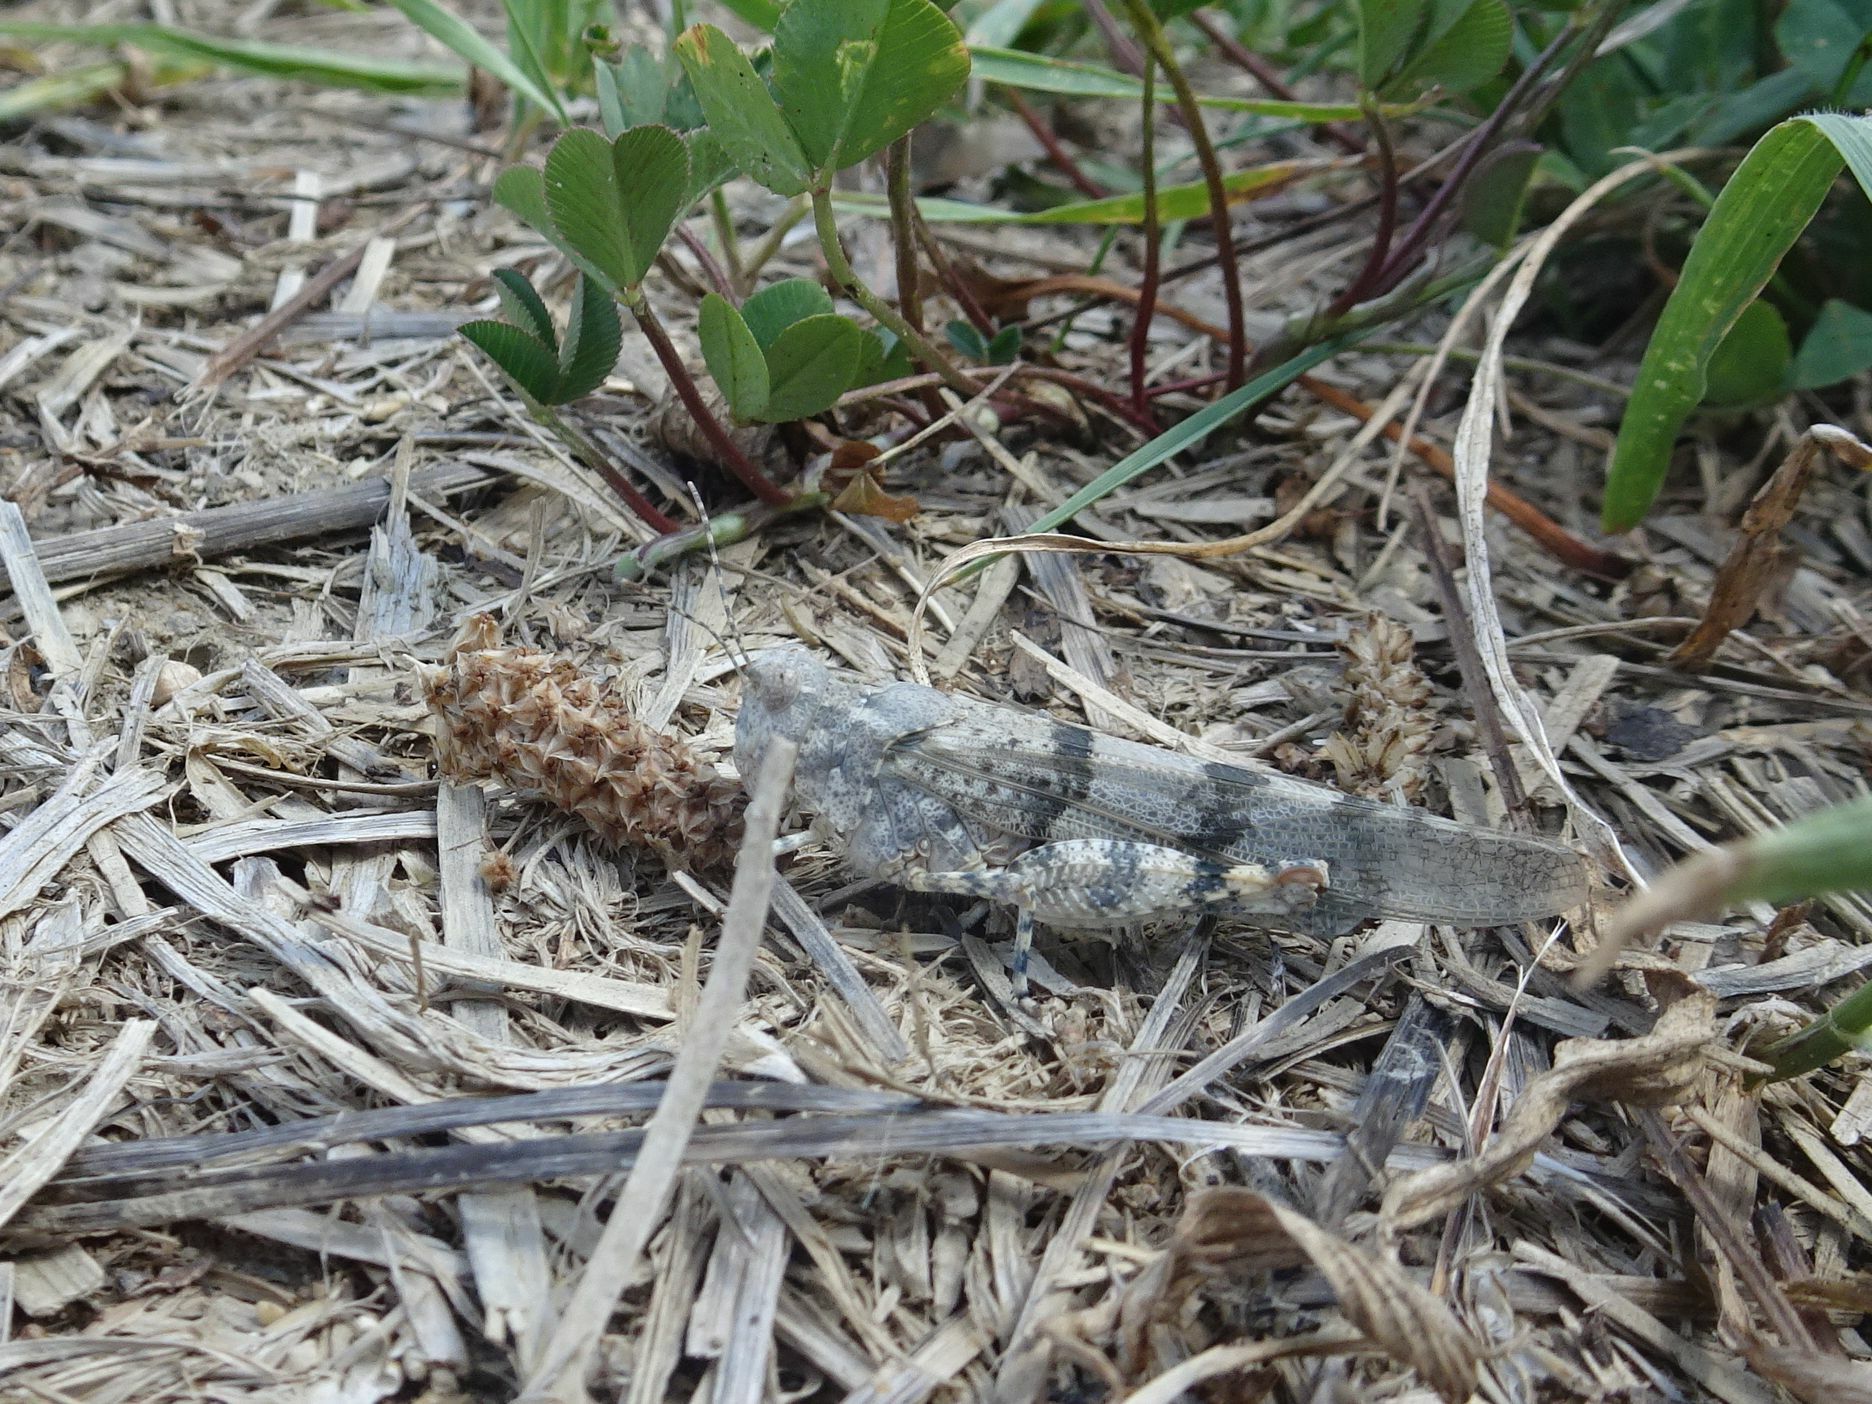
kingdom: Animalia
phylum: Arthropoda
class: Insecta
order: Orthoptera
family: Acrididae
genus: Sphingonotus
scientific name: Sphingonotus caerulans
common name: Blue-winged locust
